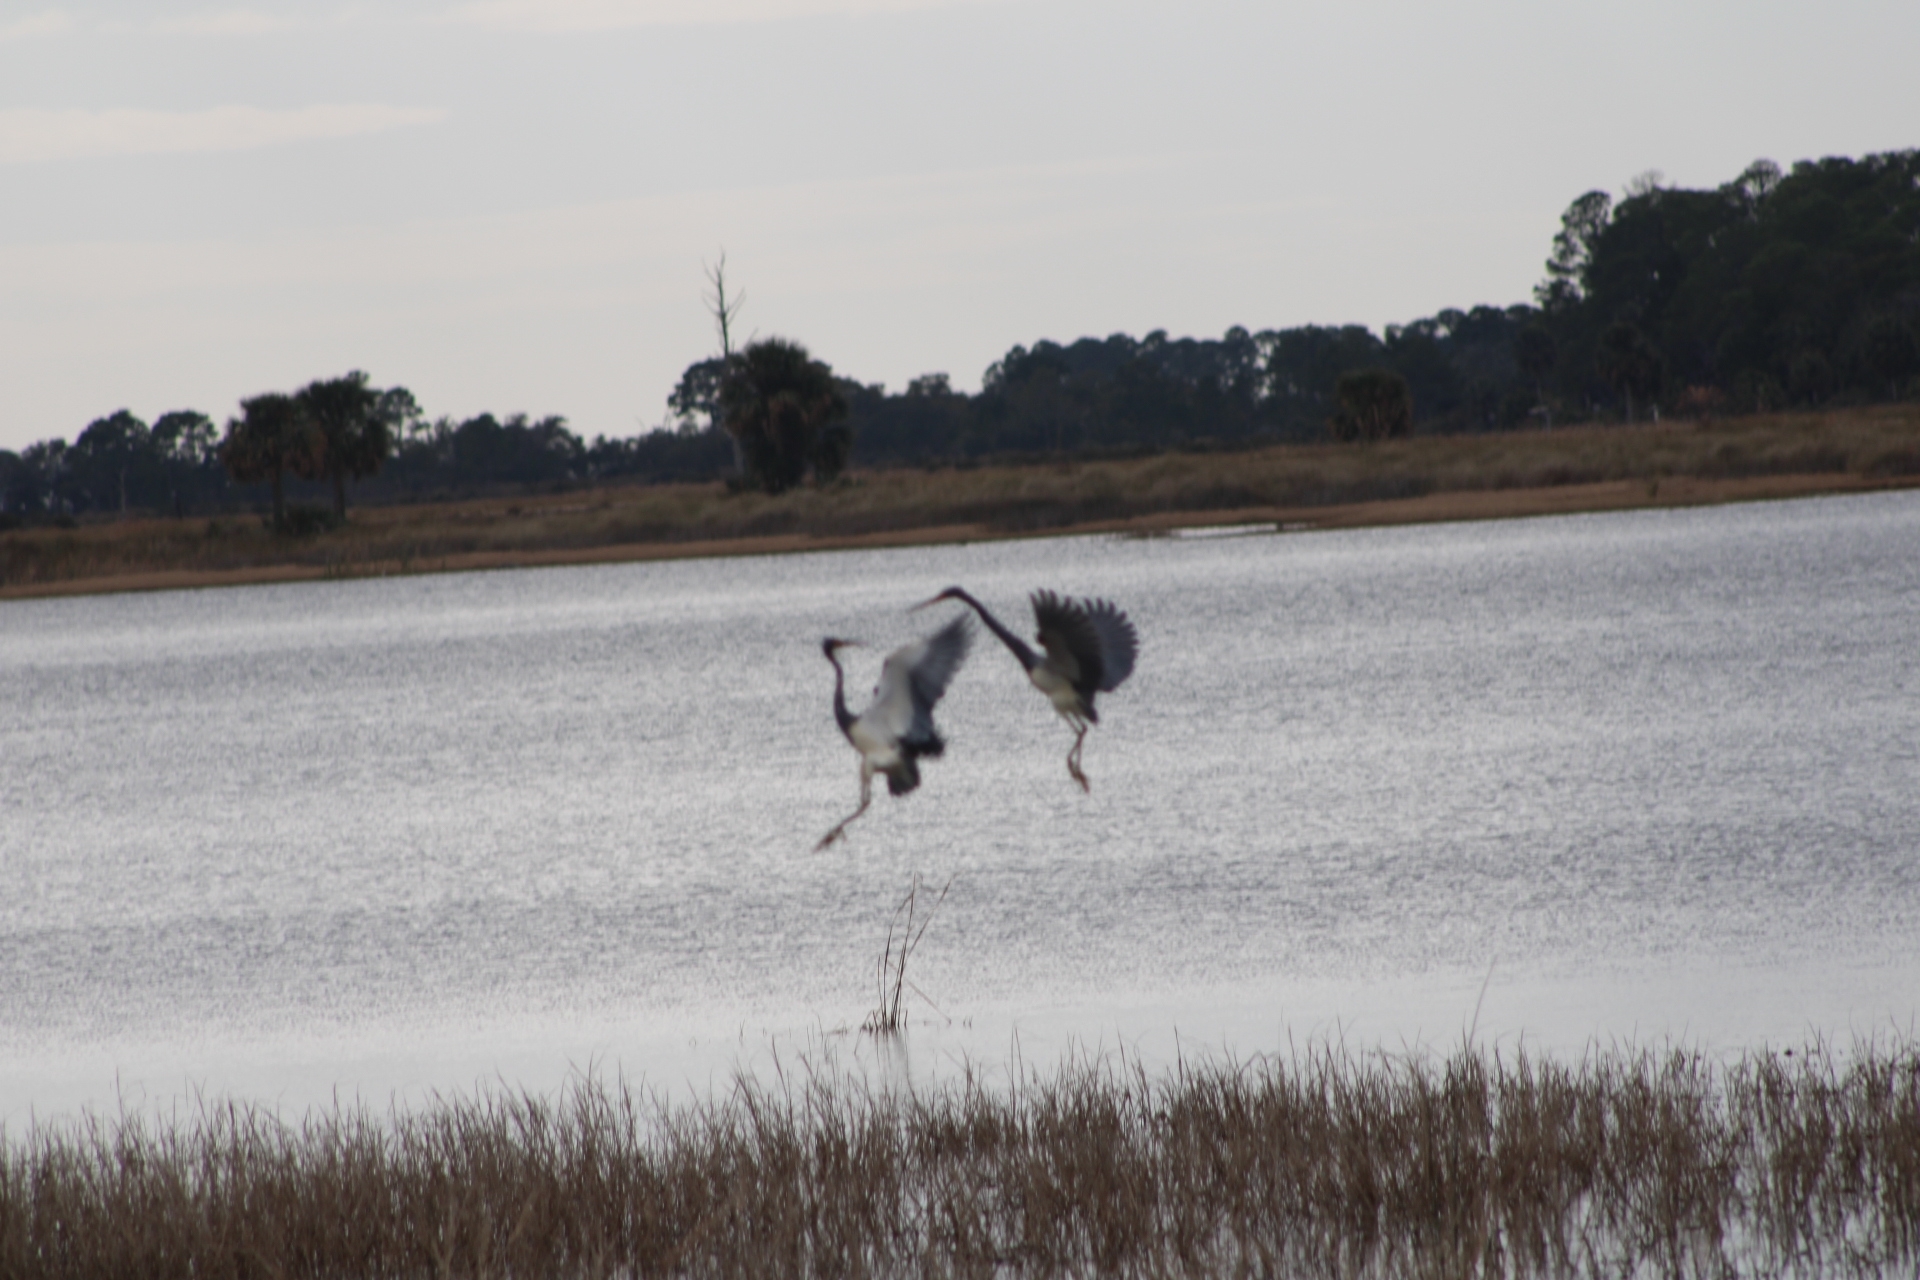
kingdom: Animalia
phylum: Chordata
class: Aves
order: Pelecaniformes
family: Ardeidae
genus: Egretta
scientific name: Egretta tricolor
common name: Tricolored heron
